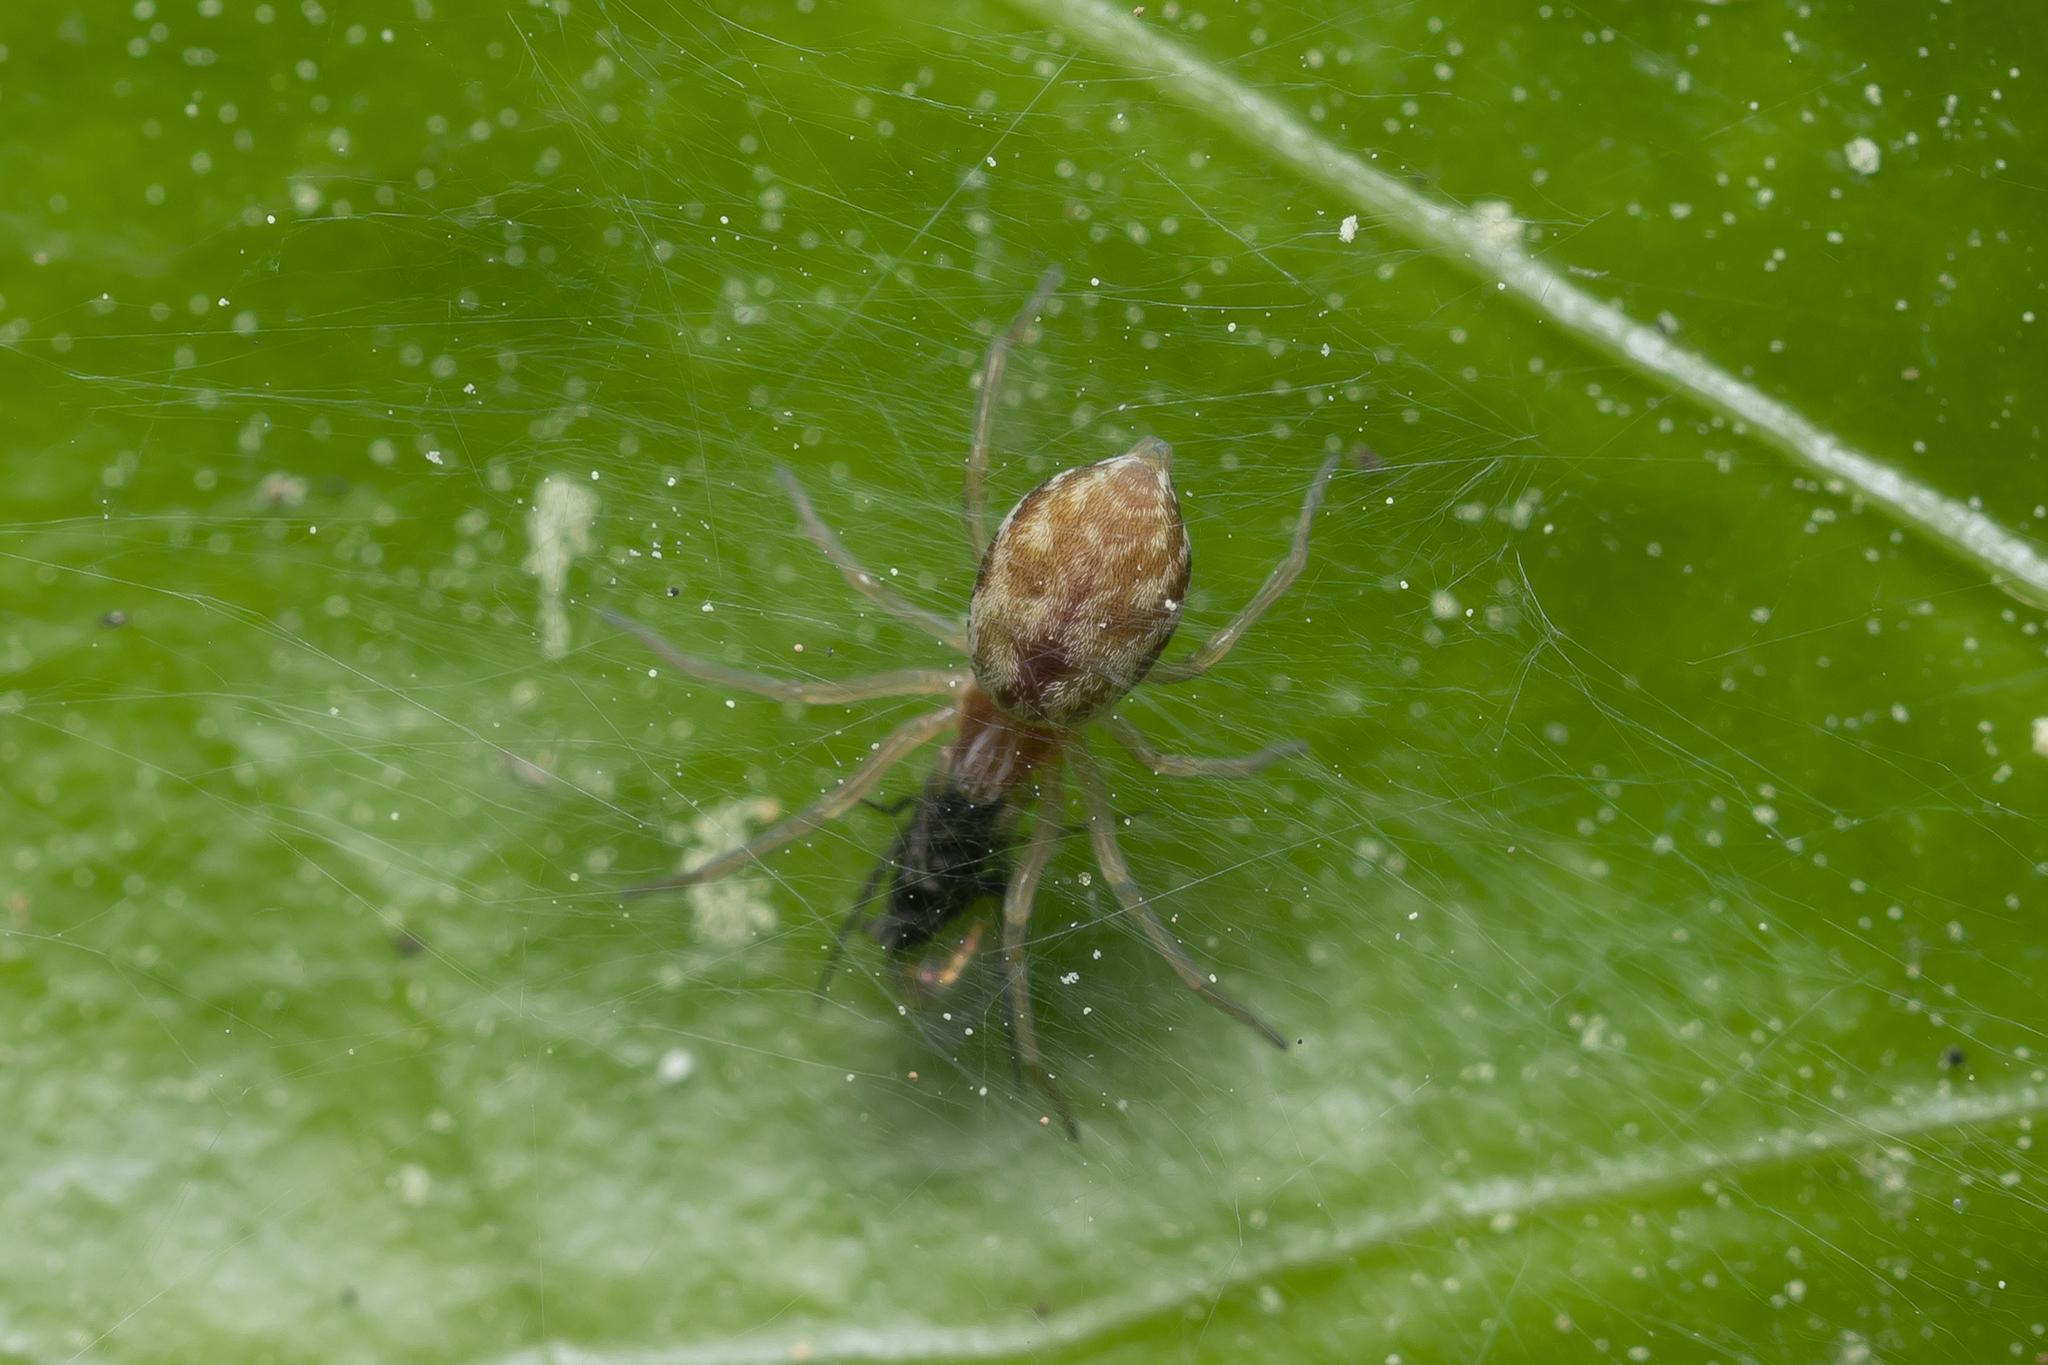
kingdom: Animalia
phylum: Arthropoda
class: Arachnida
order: Araneae
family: Dictynidae
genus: Nigma
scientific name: Nigma flavescens
